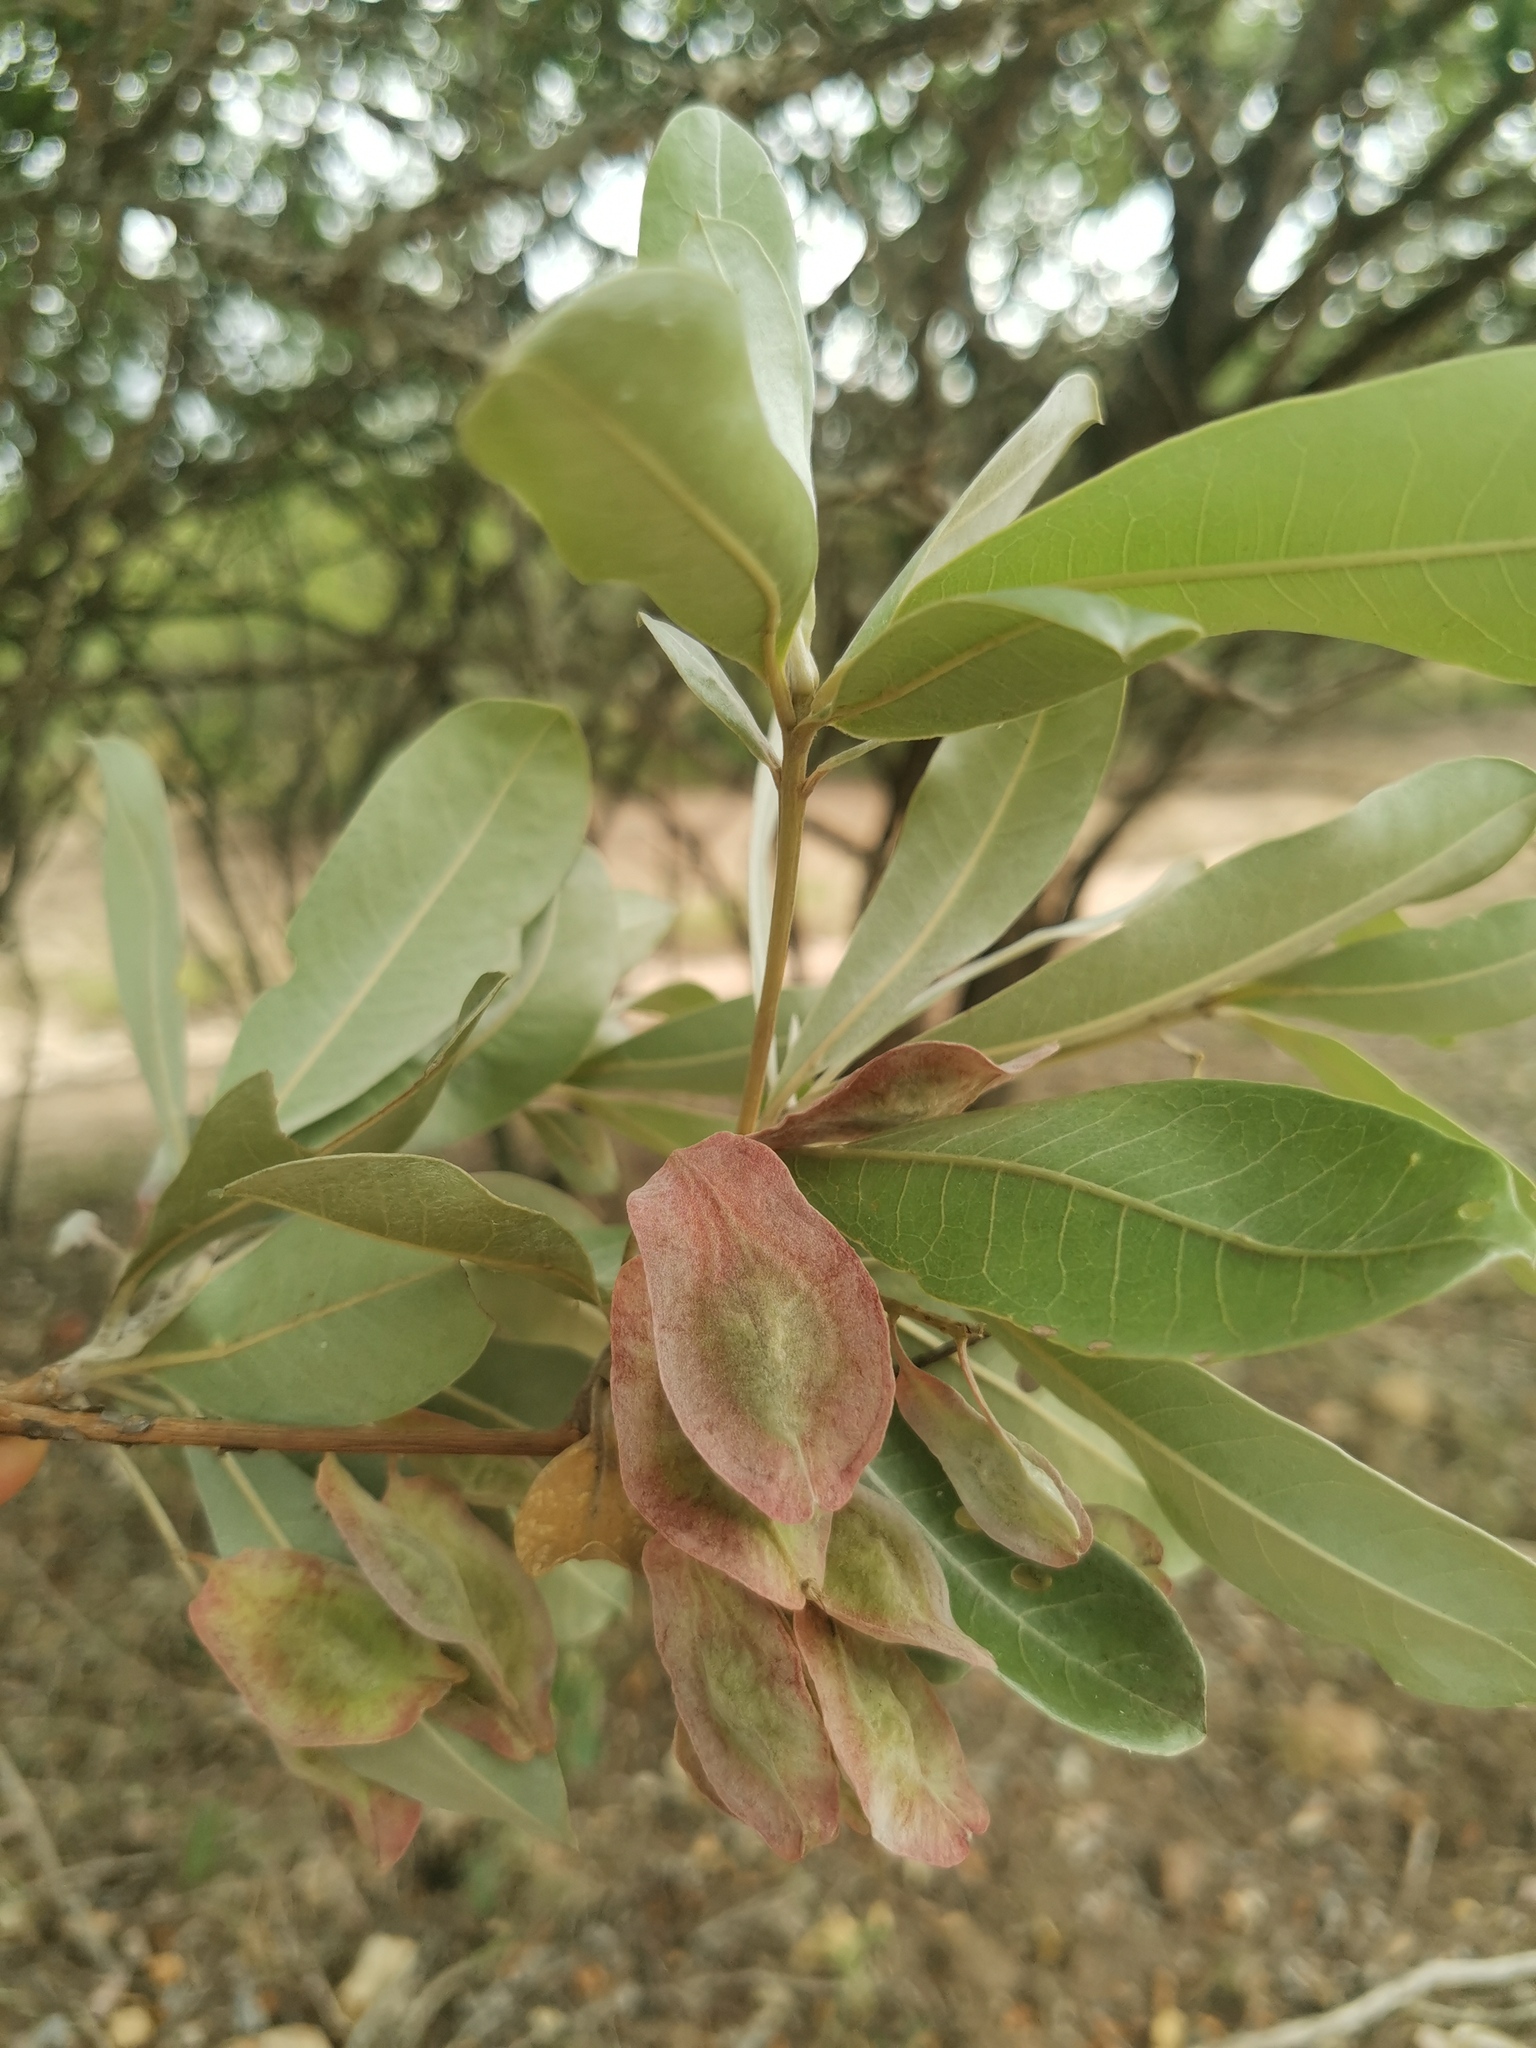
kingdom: Plantae
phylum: Tracheophyta
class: Magnoliopsida
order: Myrtales
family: Combretaceae
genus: Terminalia
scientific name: Terminalia sericea
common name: Clusterleaf
